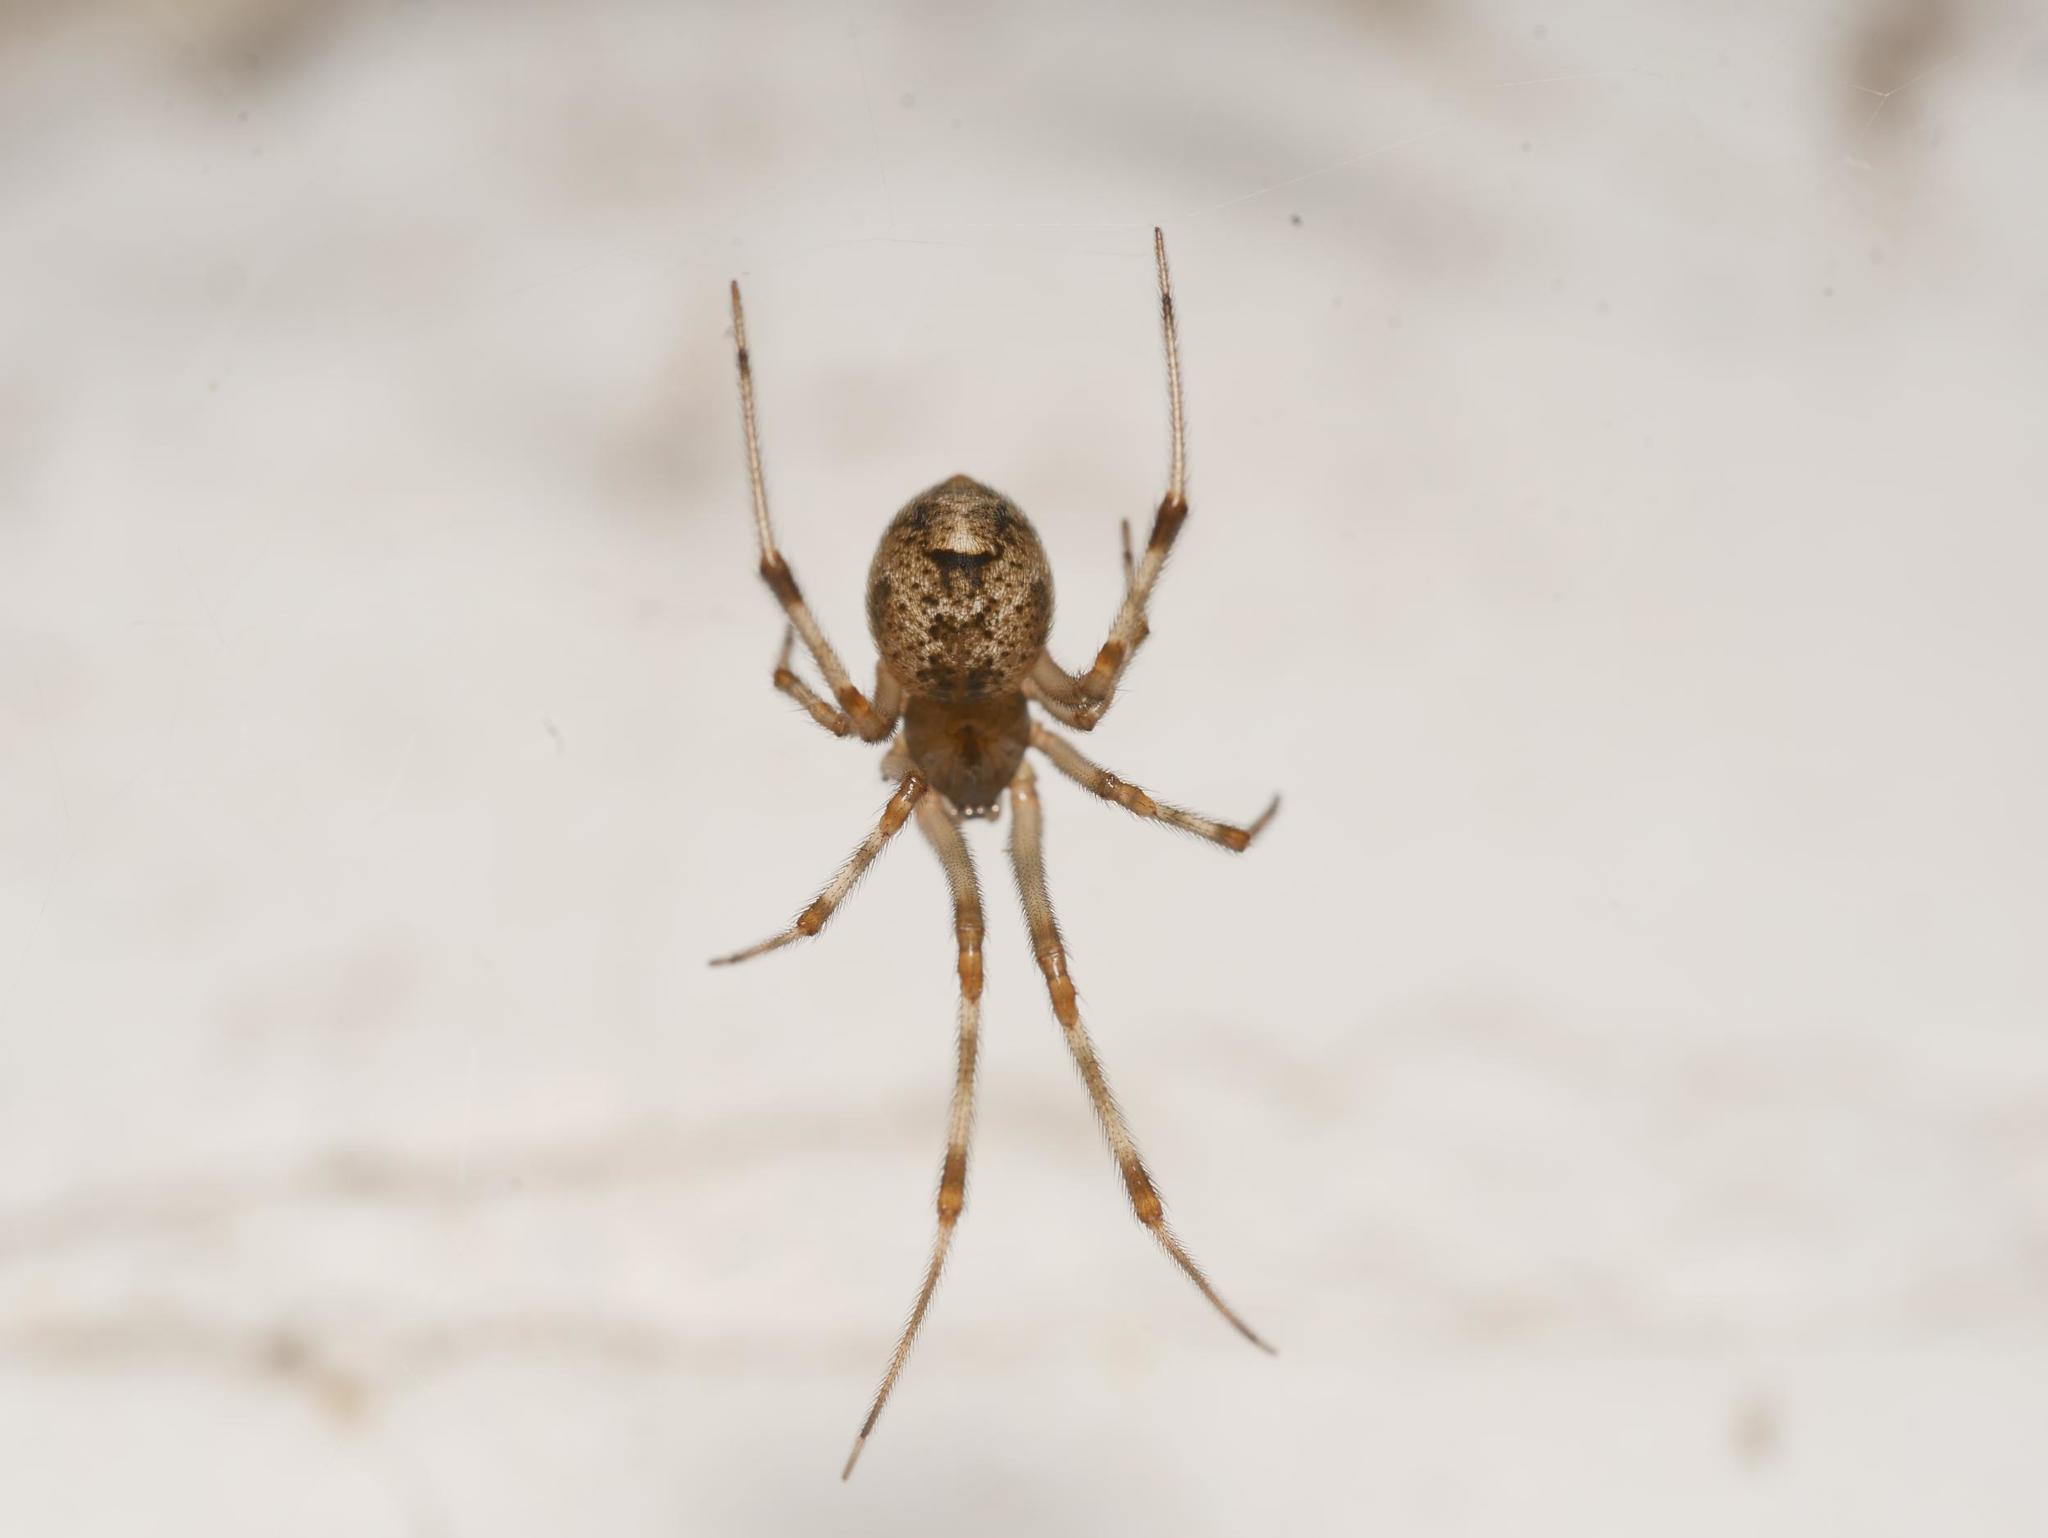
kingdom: Animalia
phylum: Arthropoda
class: Arachnida
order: Araneae
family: Theridiidae
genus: Parasteatoda
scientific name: Parasteatoda tepidariorum
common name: Common house spider
